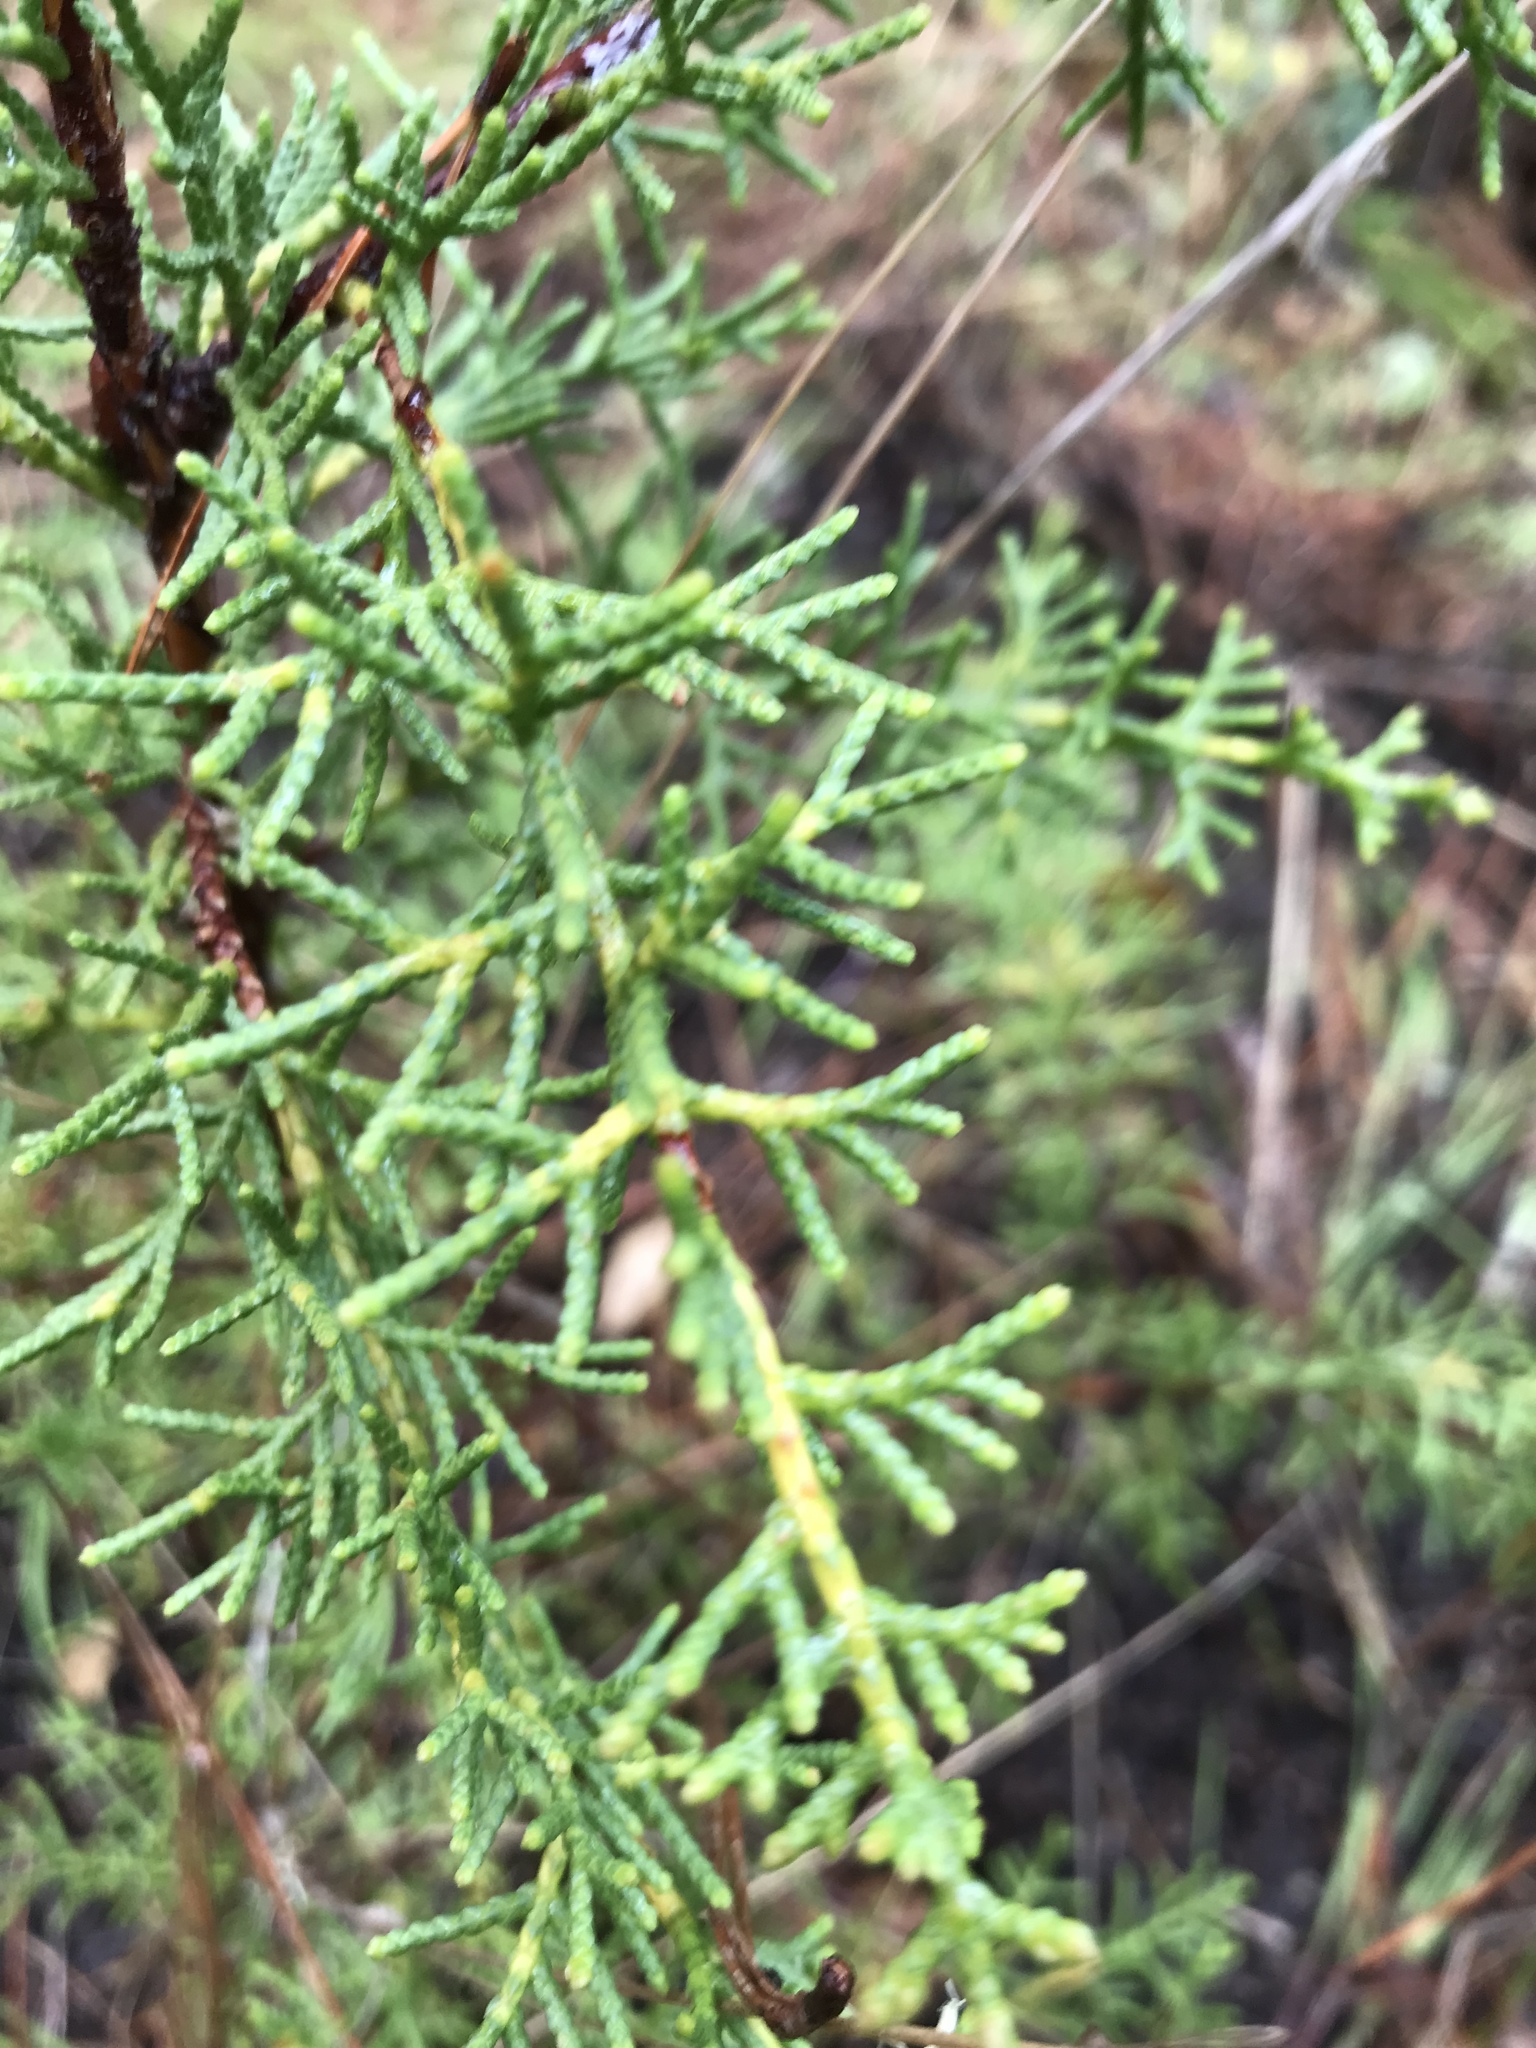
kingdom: Plantae
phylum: Tracheophyta
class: Pinopsida
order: Pinales
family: Cupressaceae
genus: Cupressus
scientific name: Cupressus goveniana
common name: Gowen cypress
